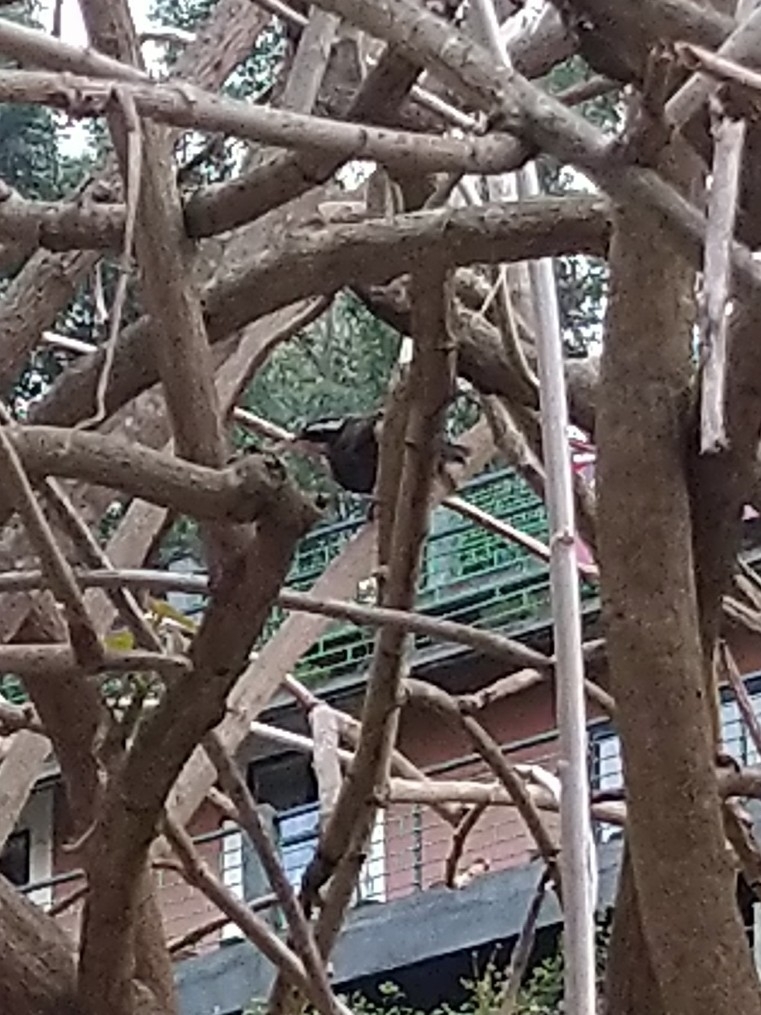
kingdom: Animalia
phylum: Chordata
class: Aves
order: Passeriformes
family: Timaliidae
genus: Pomatorhinus
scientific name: Pomatorhinus horsfieldii
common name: Indian scimitar babbler
